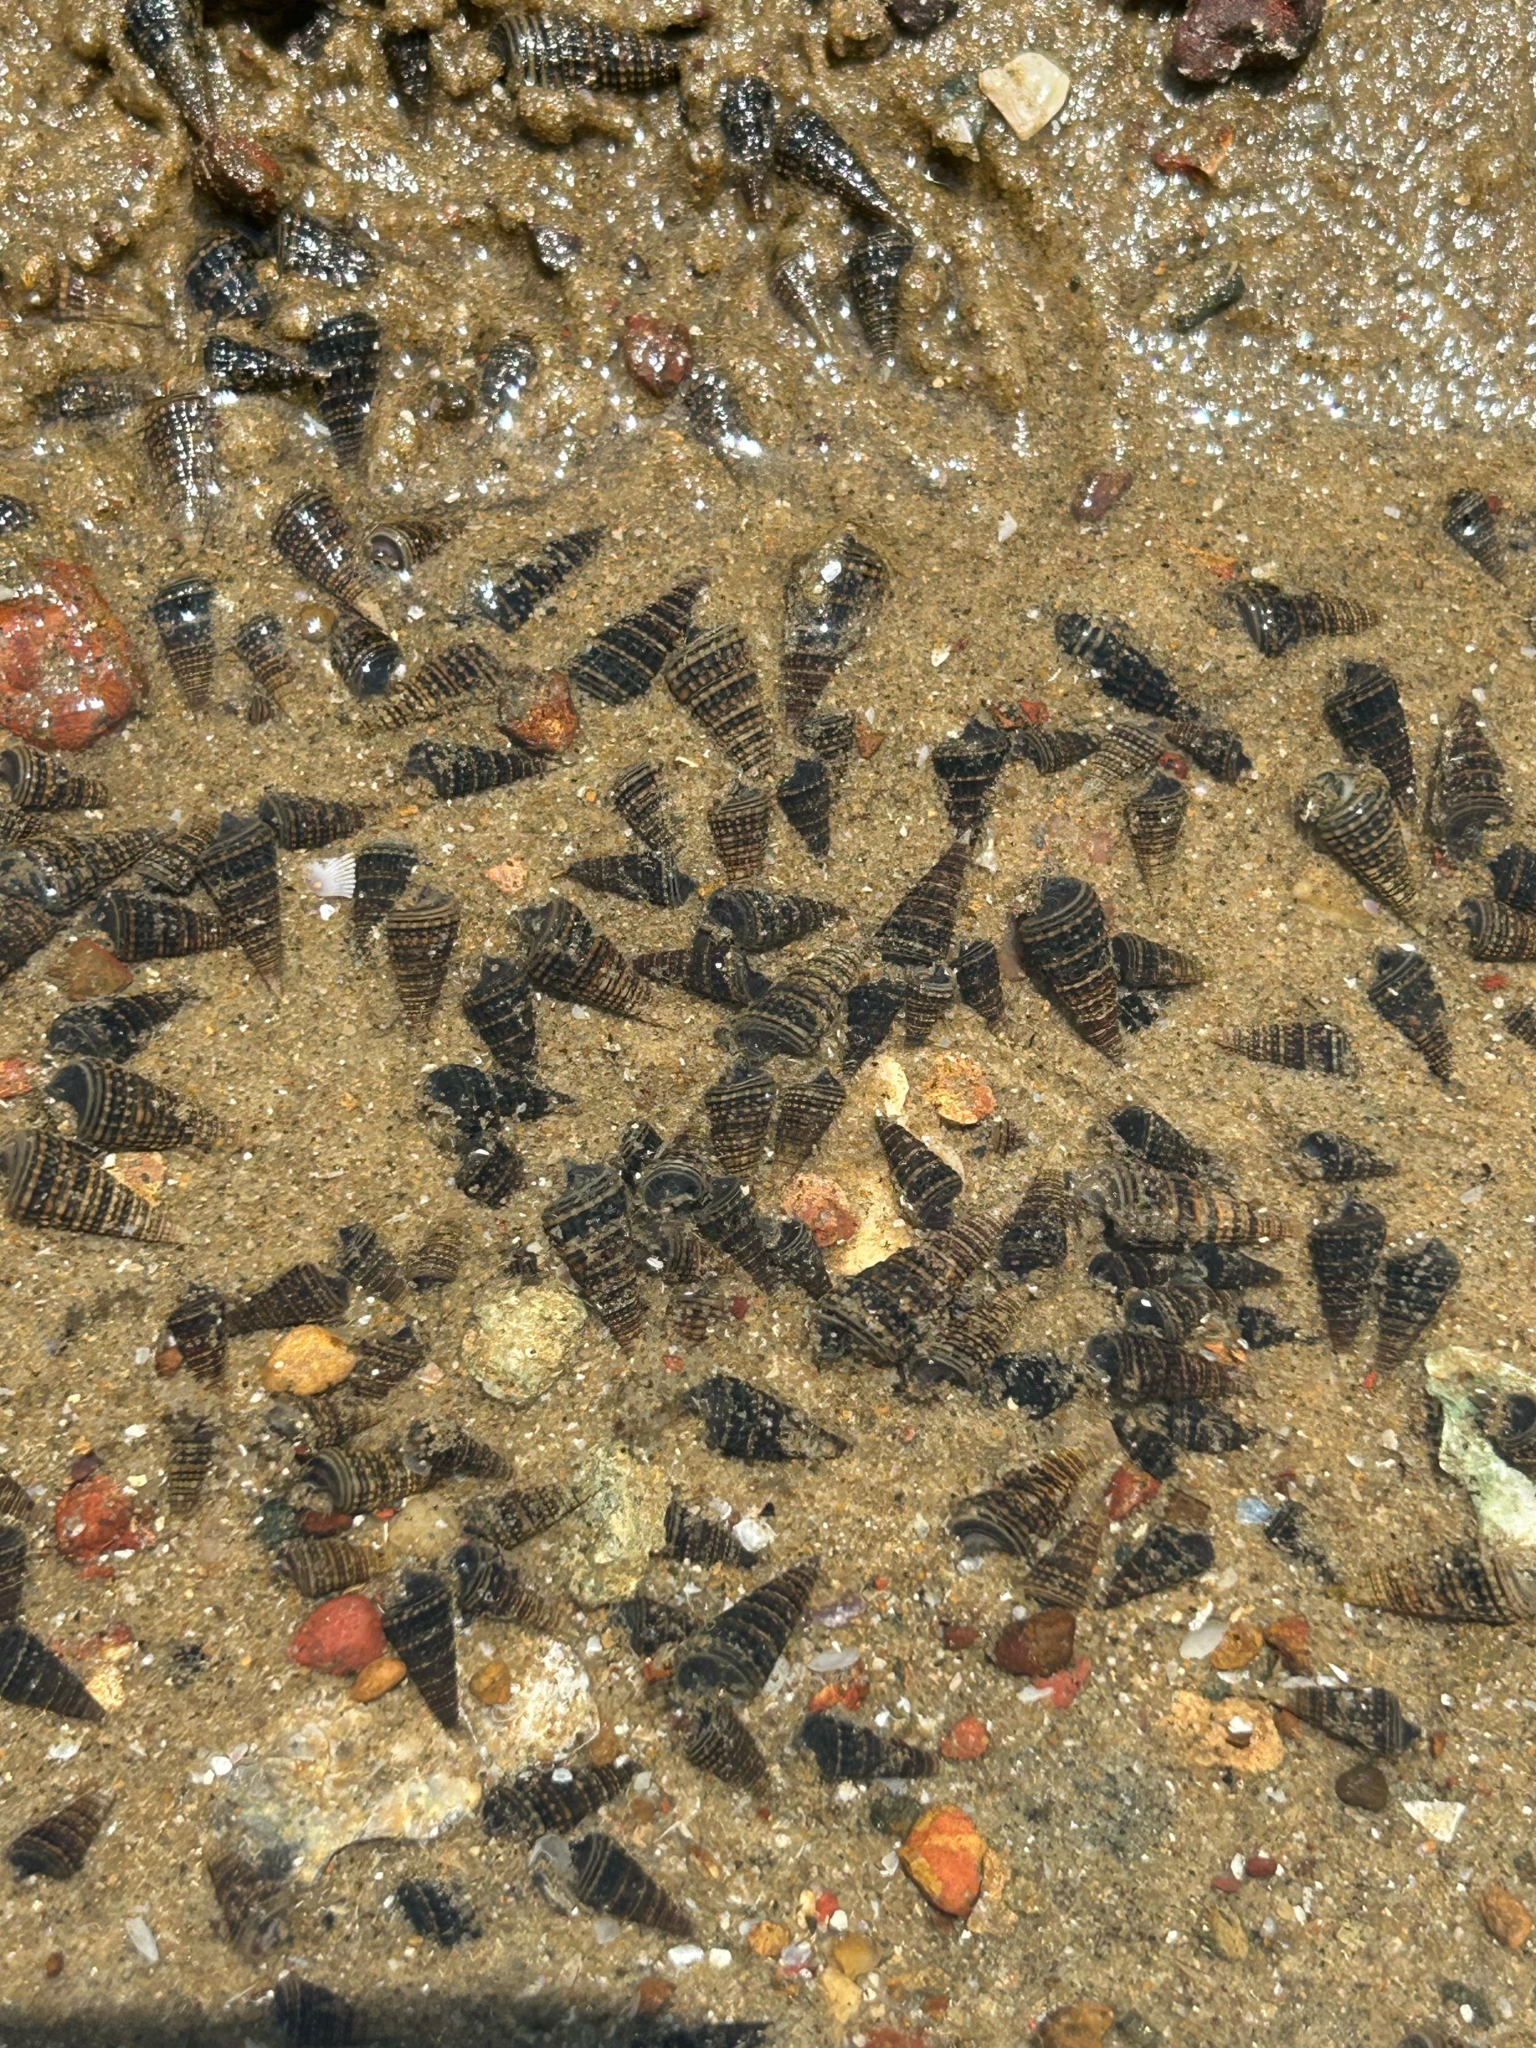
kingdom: Animalia
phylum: Mollusca
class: Gastropoda
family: Potamididae
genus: Pirenella
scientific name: Pirenella cingulata
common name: Girdled horn shell
